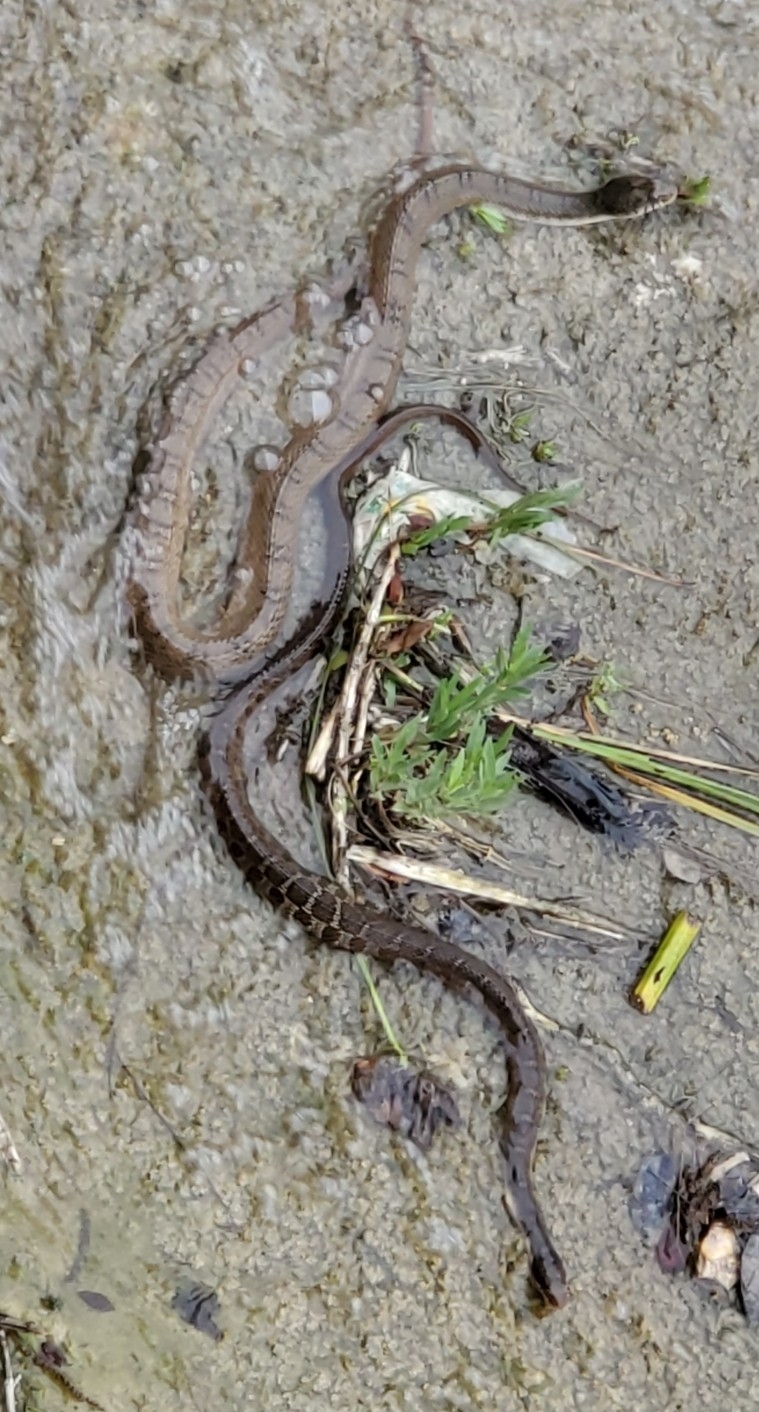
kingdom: Animalia
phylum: Chordata
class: Squamata
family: Colubridae
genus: Nerodia
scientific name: Nerodia erythrogaster
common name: Plainbelly water snake
